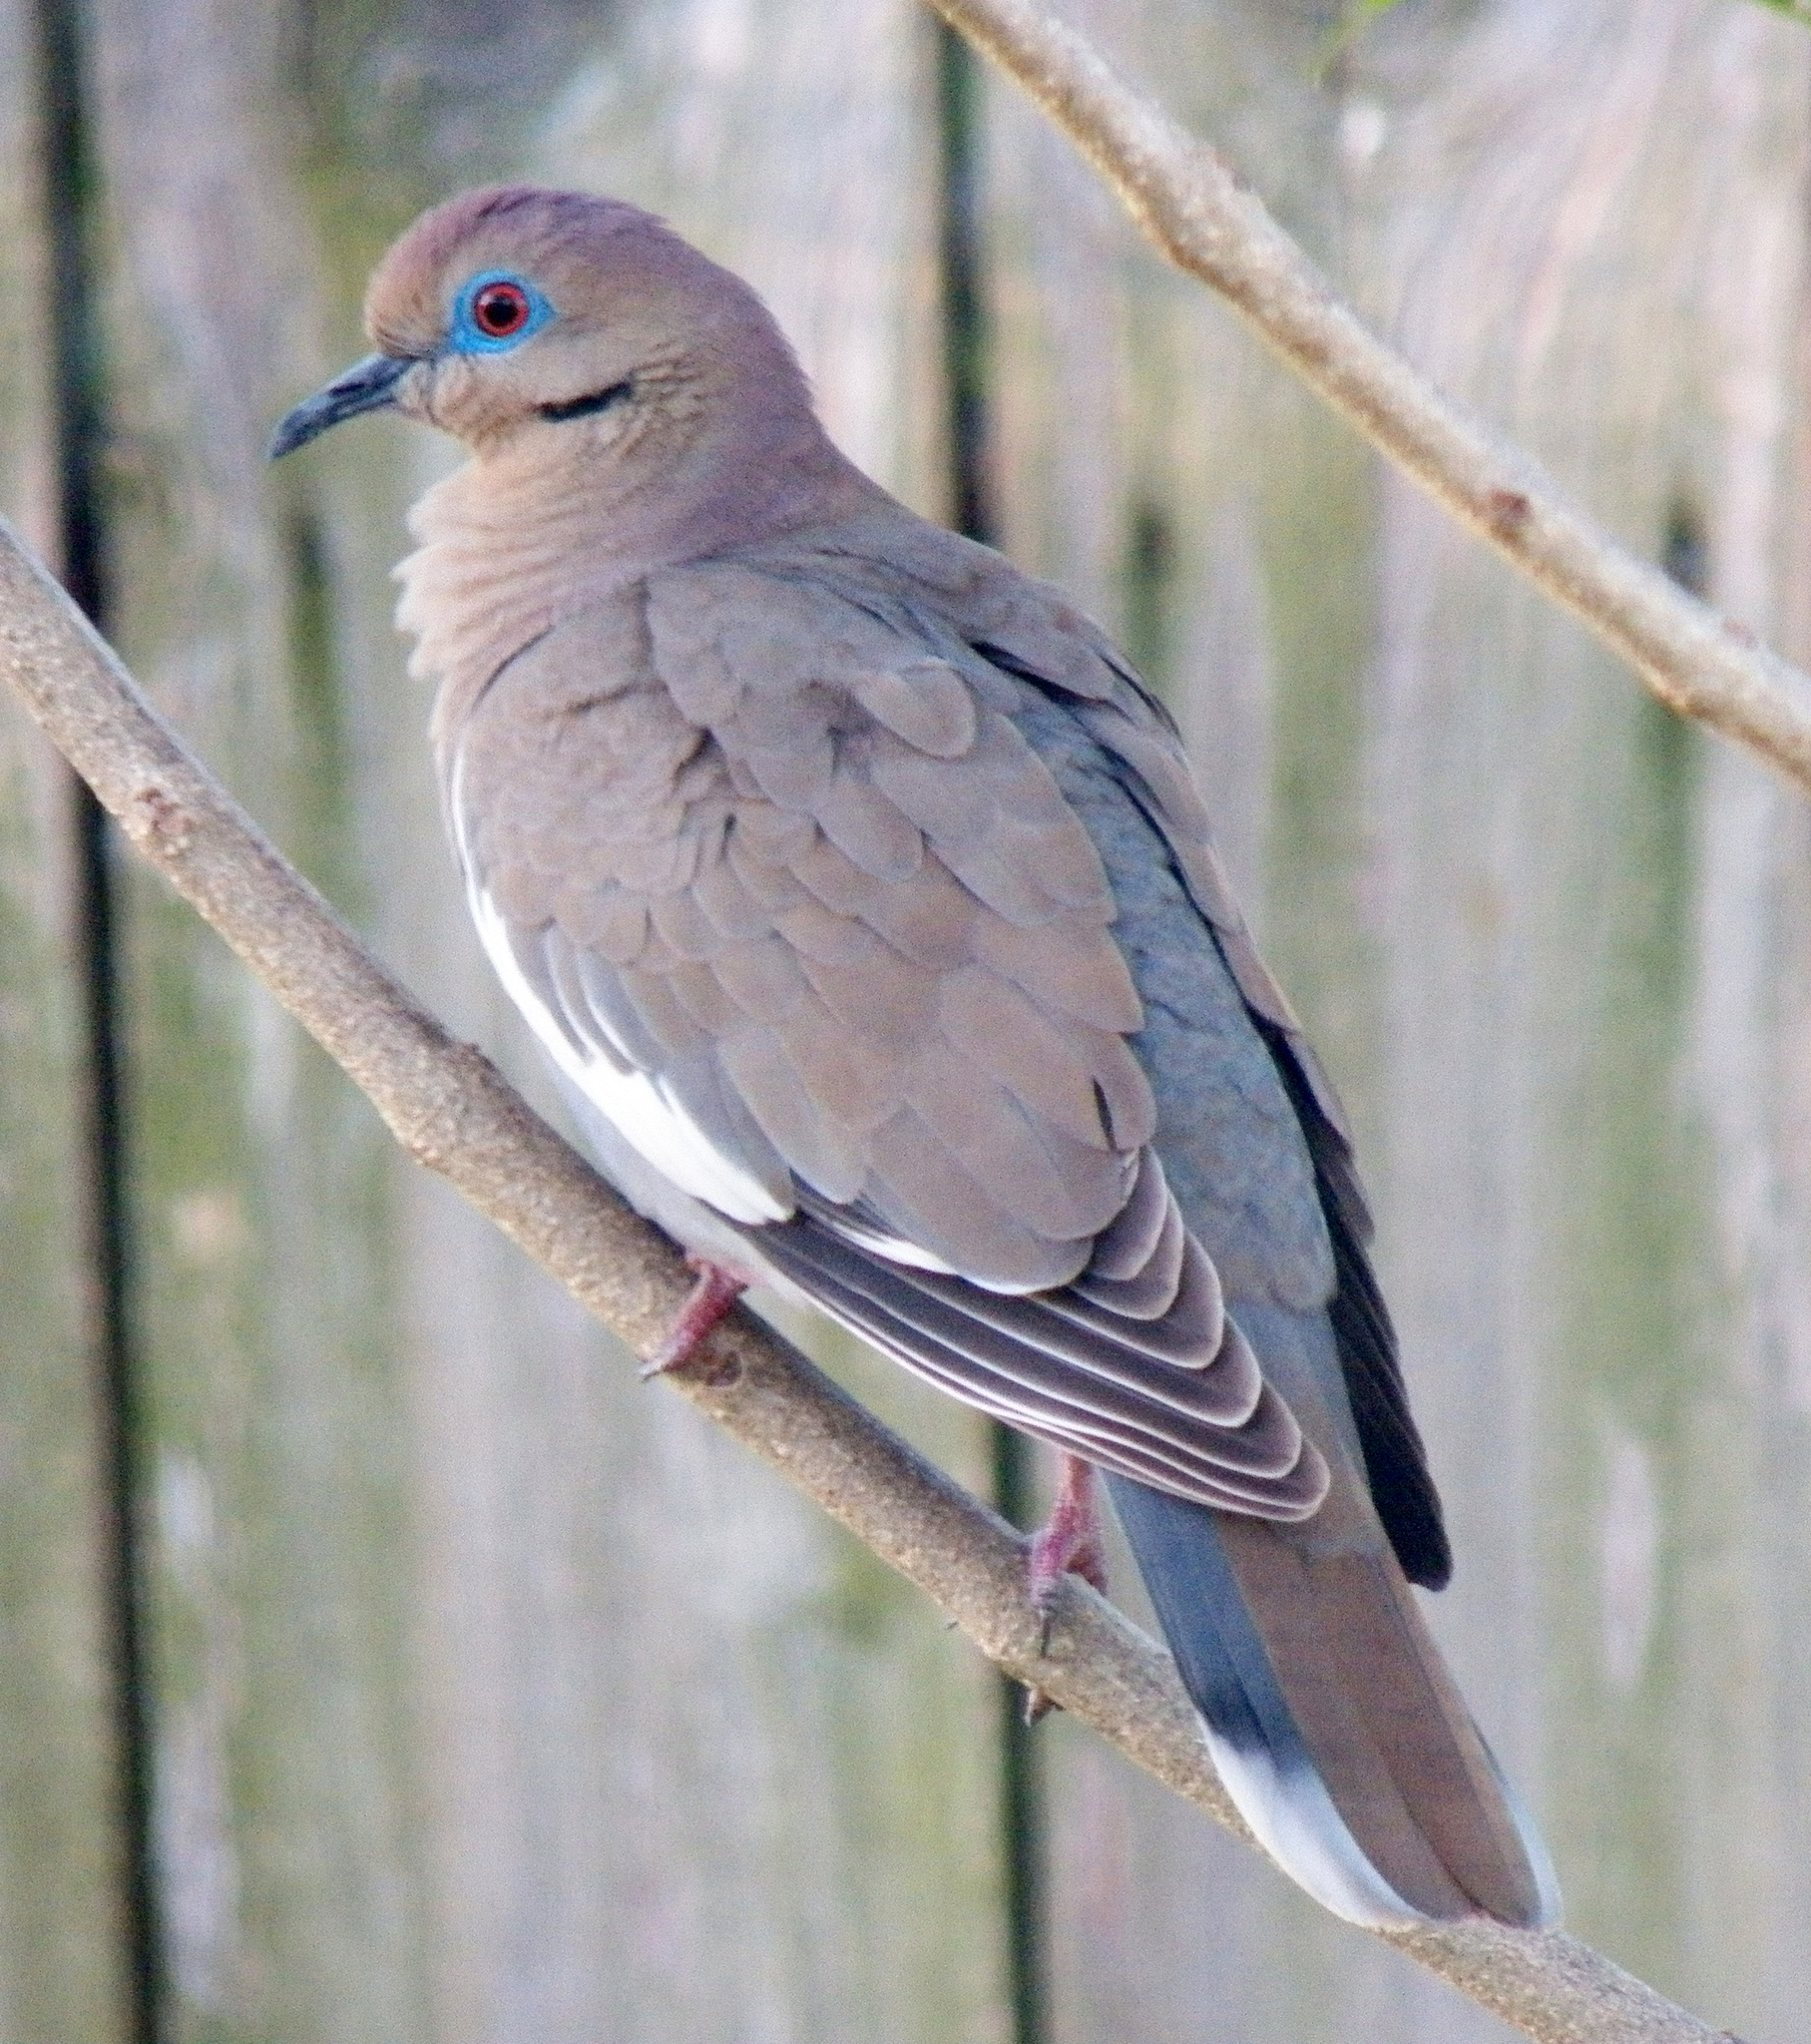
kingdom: Animalia
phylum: Chordata
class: Aves
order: Columbiformes
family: Columbidae
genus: Zenaida
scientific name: Zenaida asiatica
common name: White-winged dove
